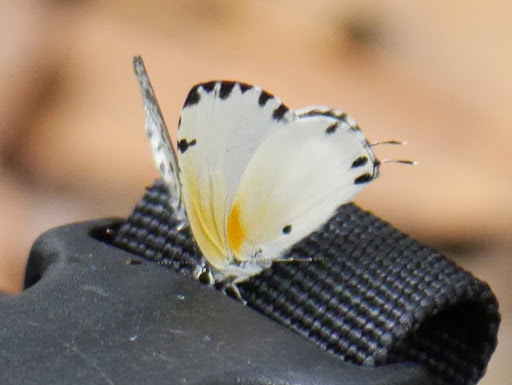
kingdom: Animalia
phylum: Arthropoda
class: Insecta
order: Lepidoptera
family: Lycaenidae
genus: Uranothauma
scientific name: Uranothauma
